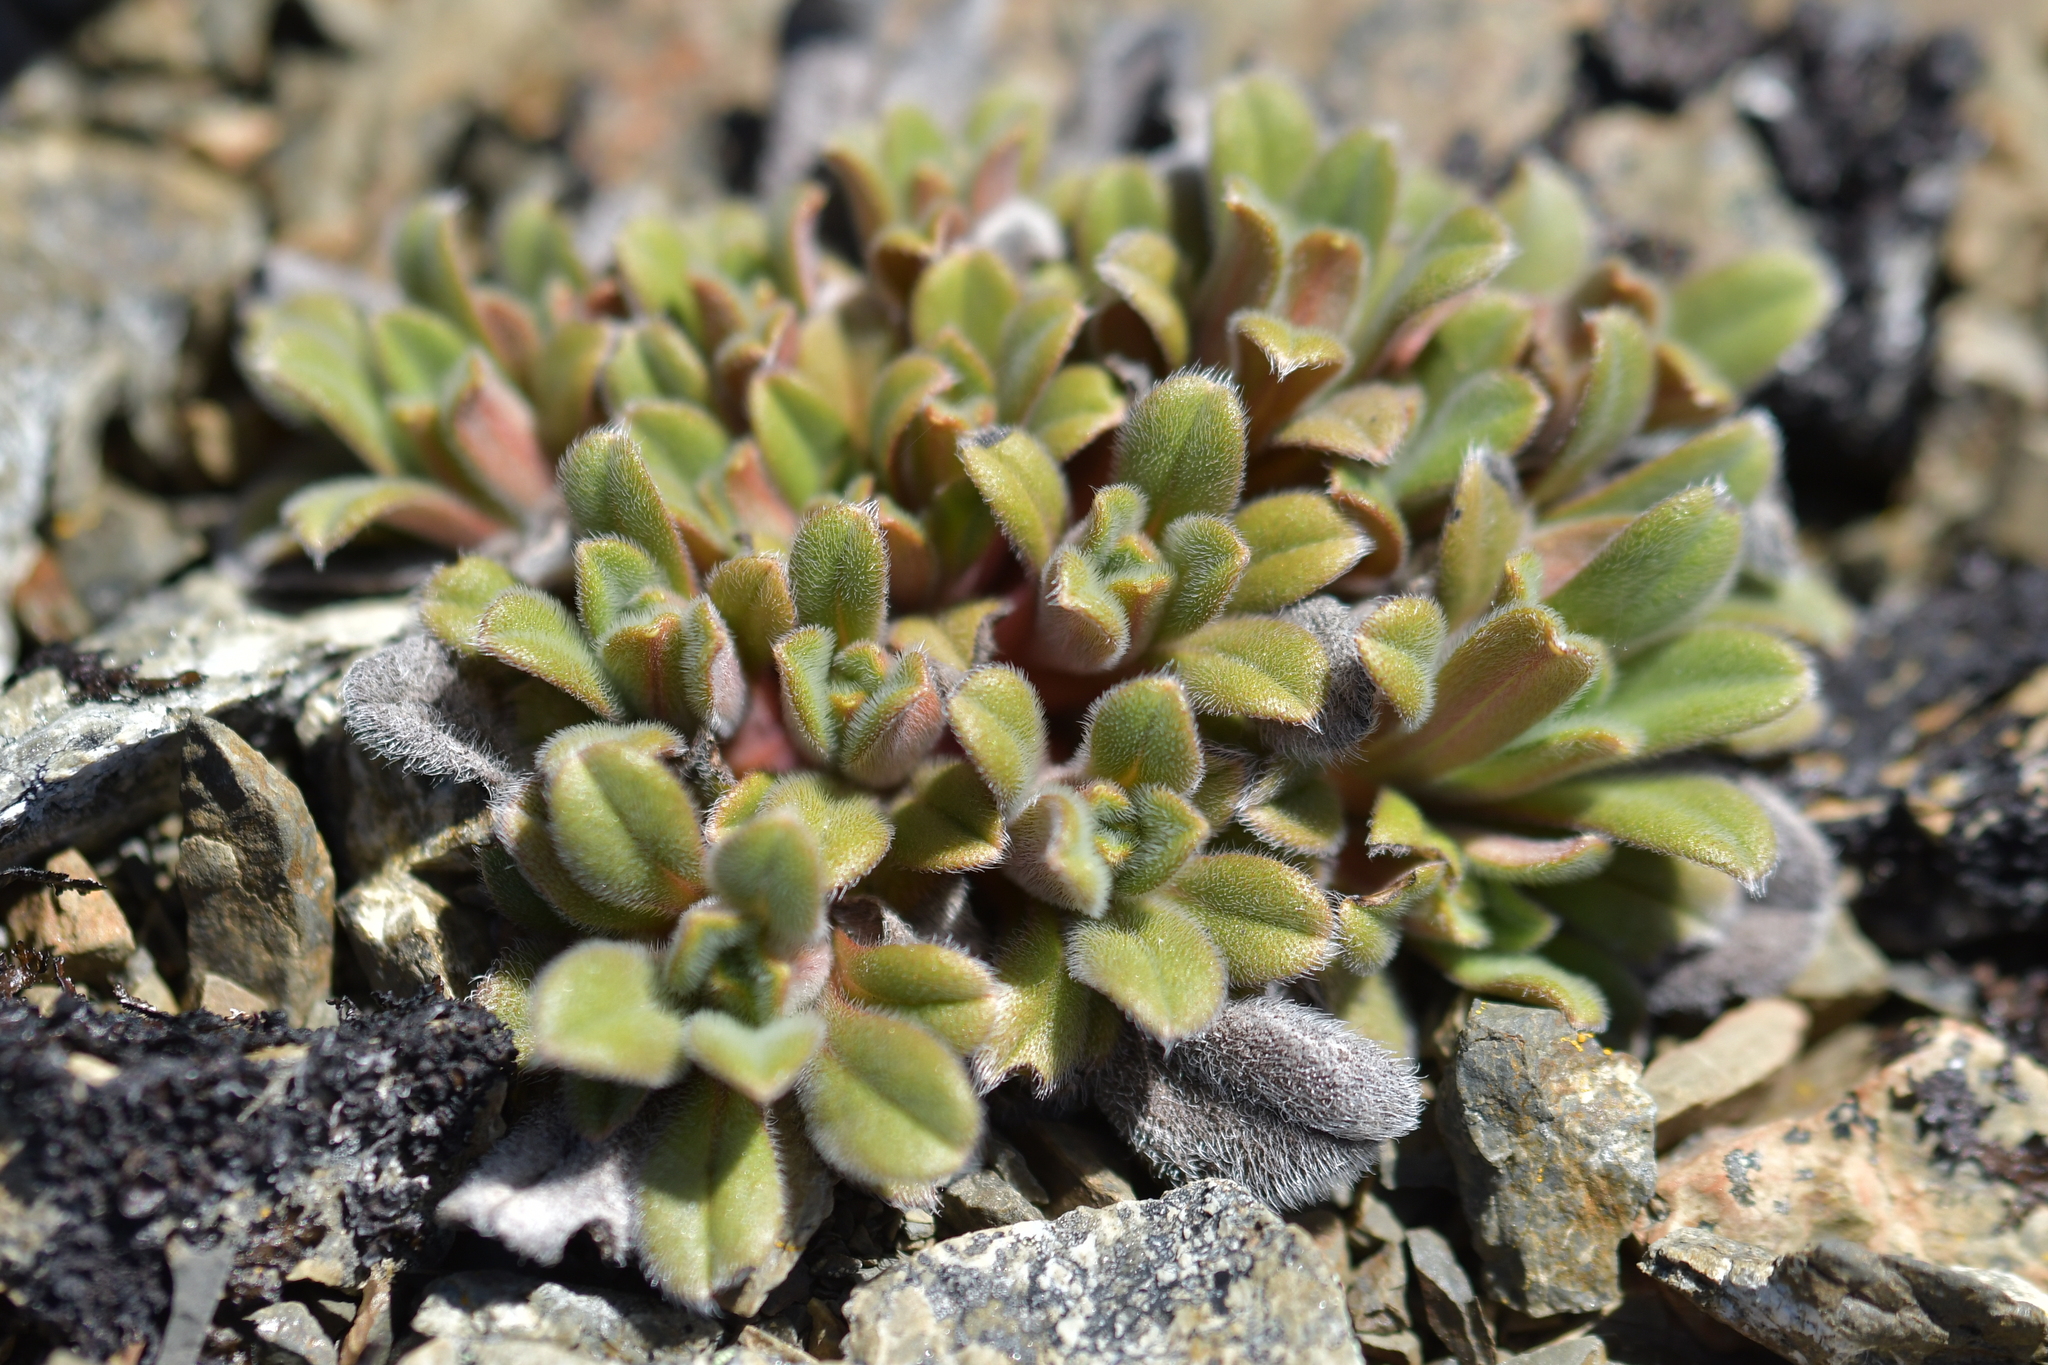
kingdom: Plantae
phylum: Tracheophyta
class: Magnoliopsida
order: Boraginales
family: Boraginaceae
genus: Myosotis
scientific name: Myosotis traversii
